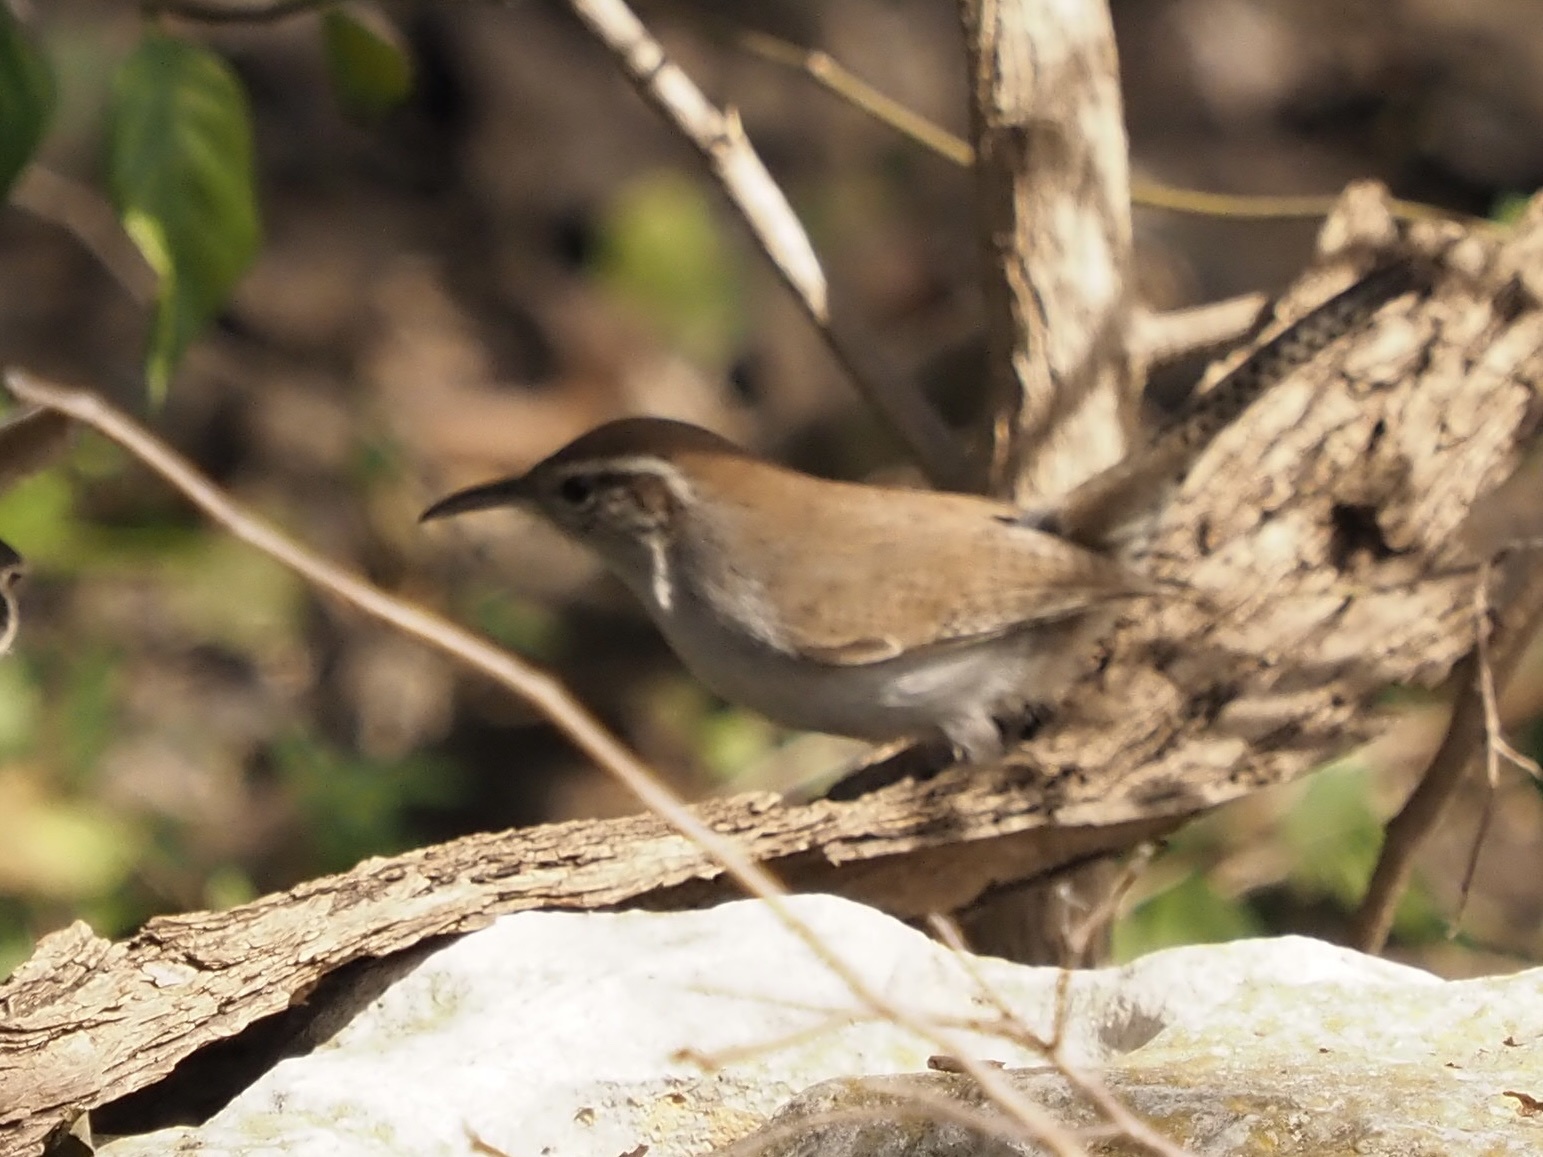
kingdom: Animalia
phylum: Chordata
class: Aves
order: Passeriformes
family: Troglodytidae
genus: Thryomanes
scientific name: Thryomanes bewickii
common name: Bewick's wren
